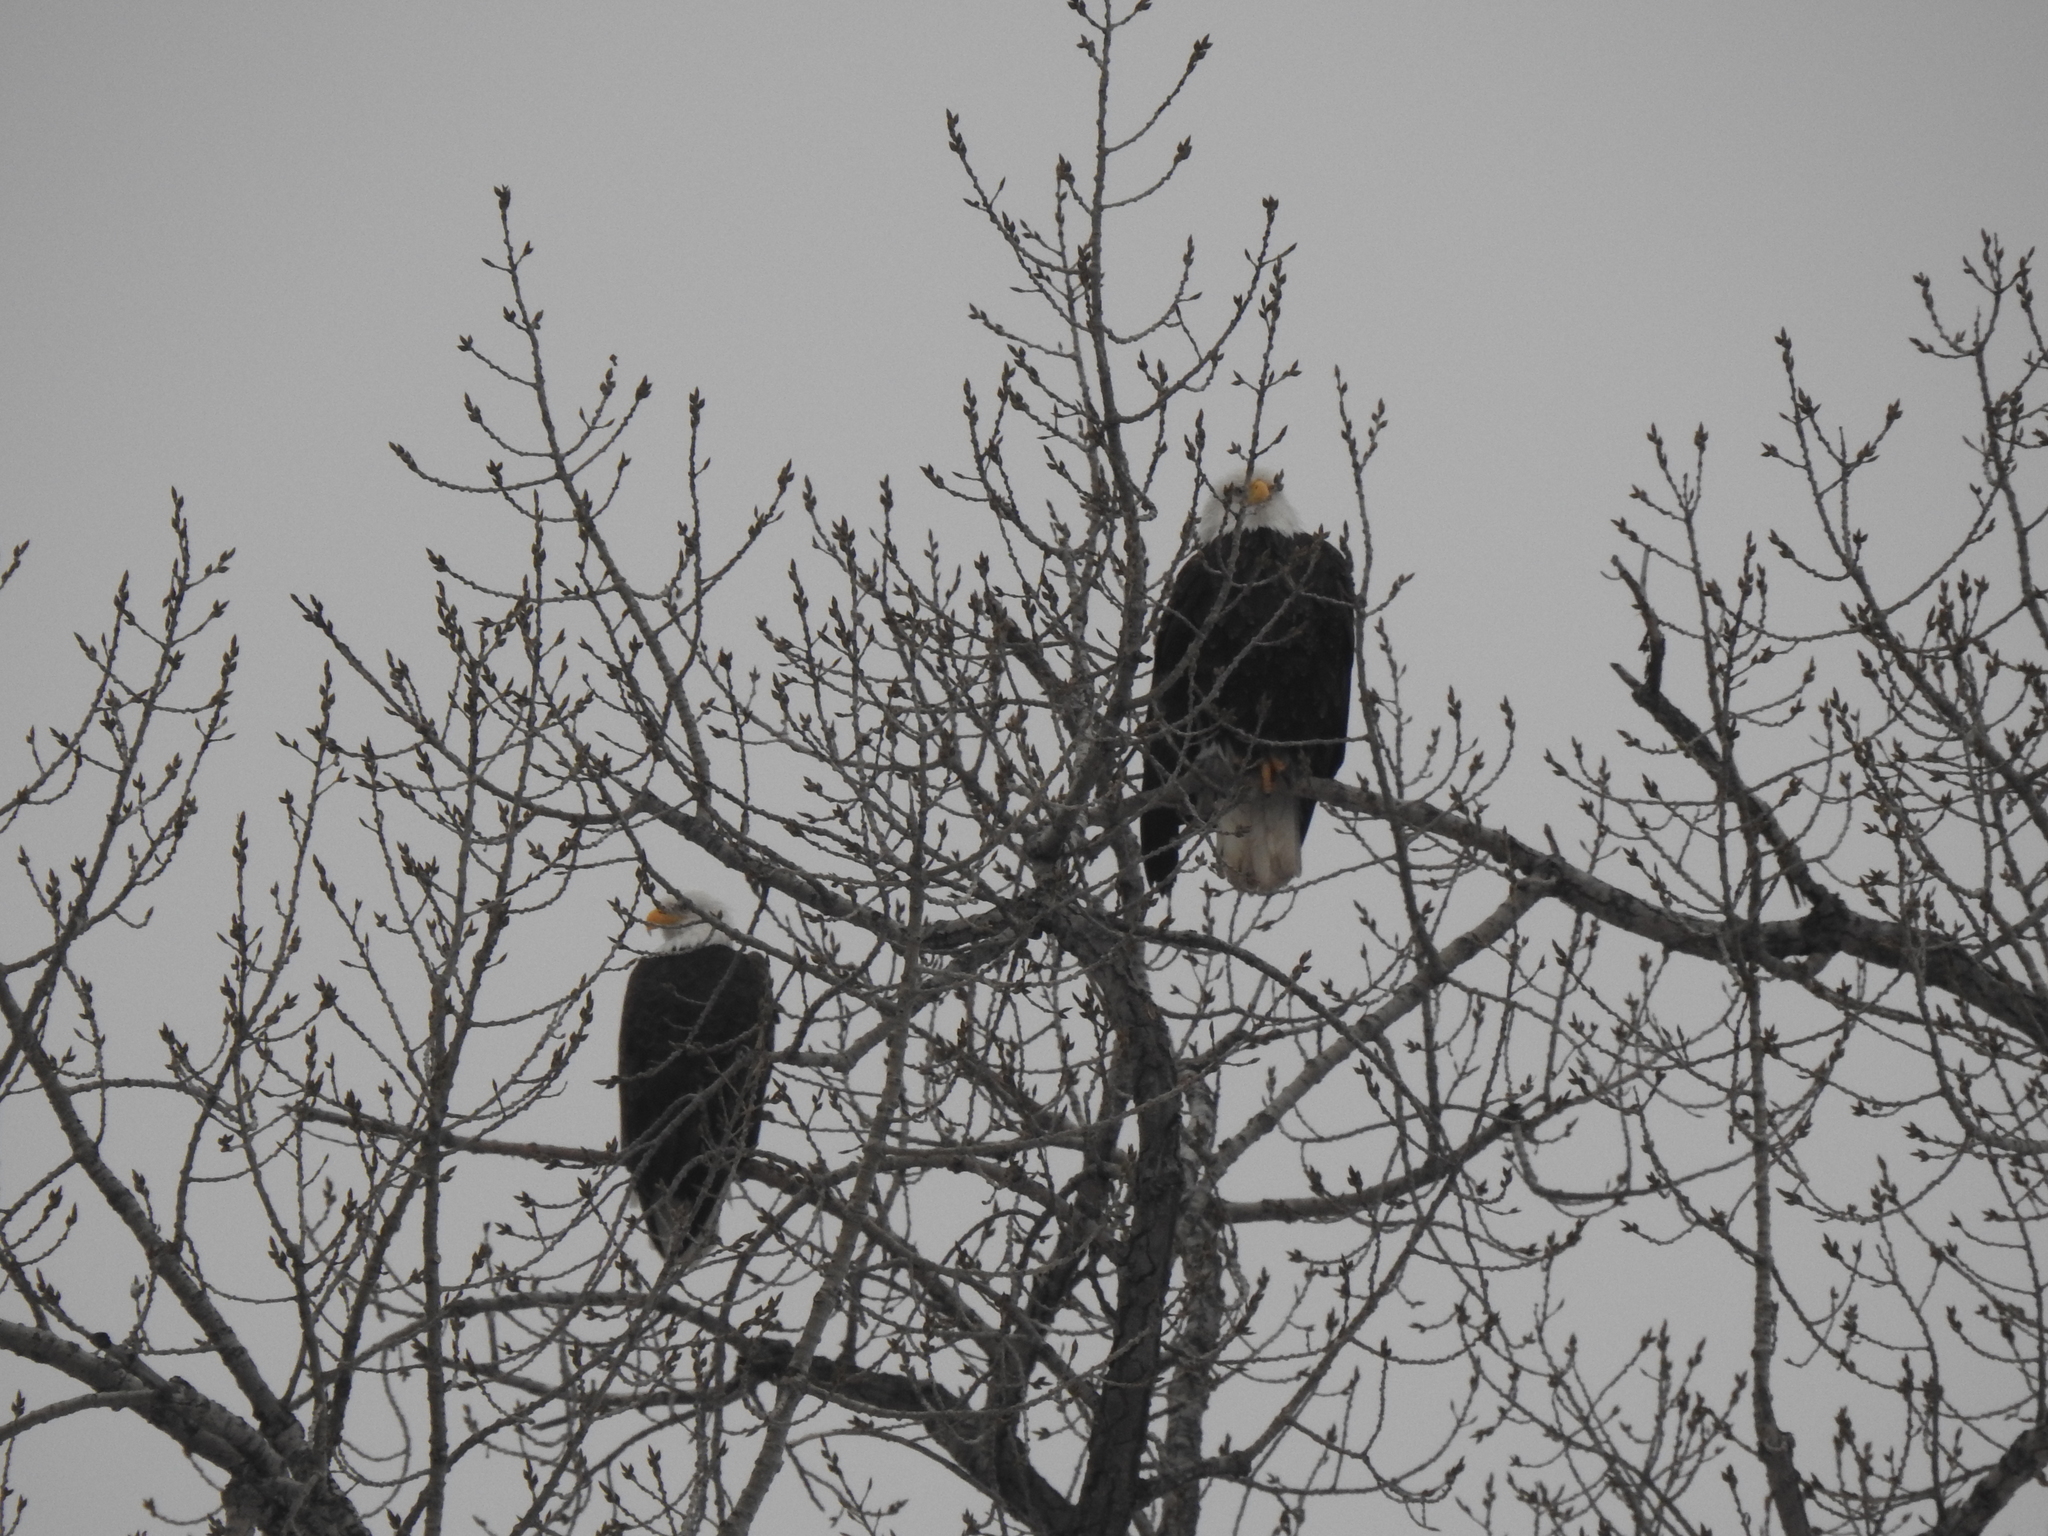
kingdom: Animalia
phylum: Chordata
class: Aves
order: Accipitriformes
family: Accipitridae
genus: Haliaeetus
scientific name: Haliaeetus leucocephalus
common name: Bald eagle
